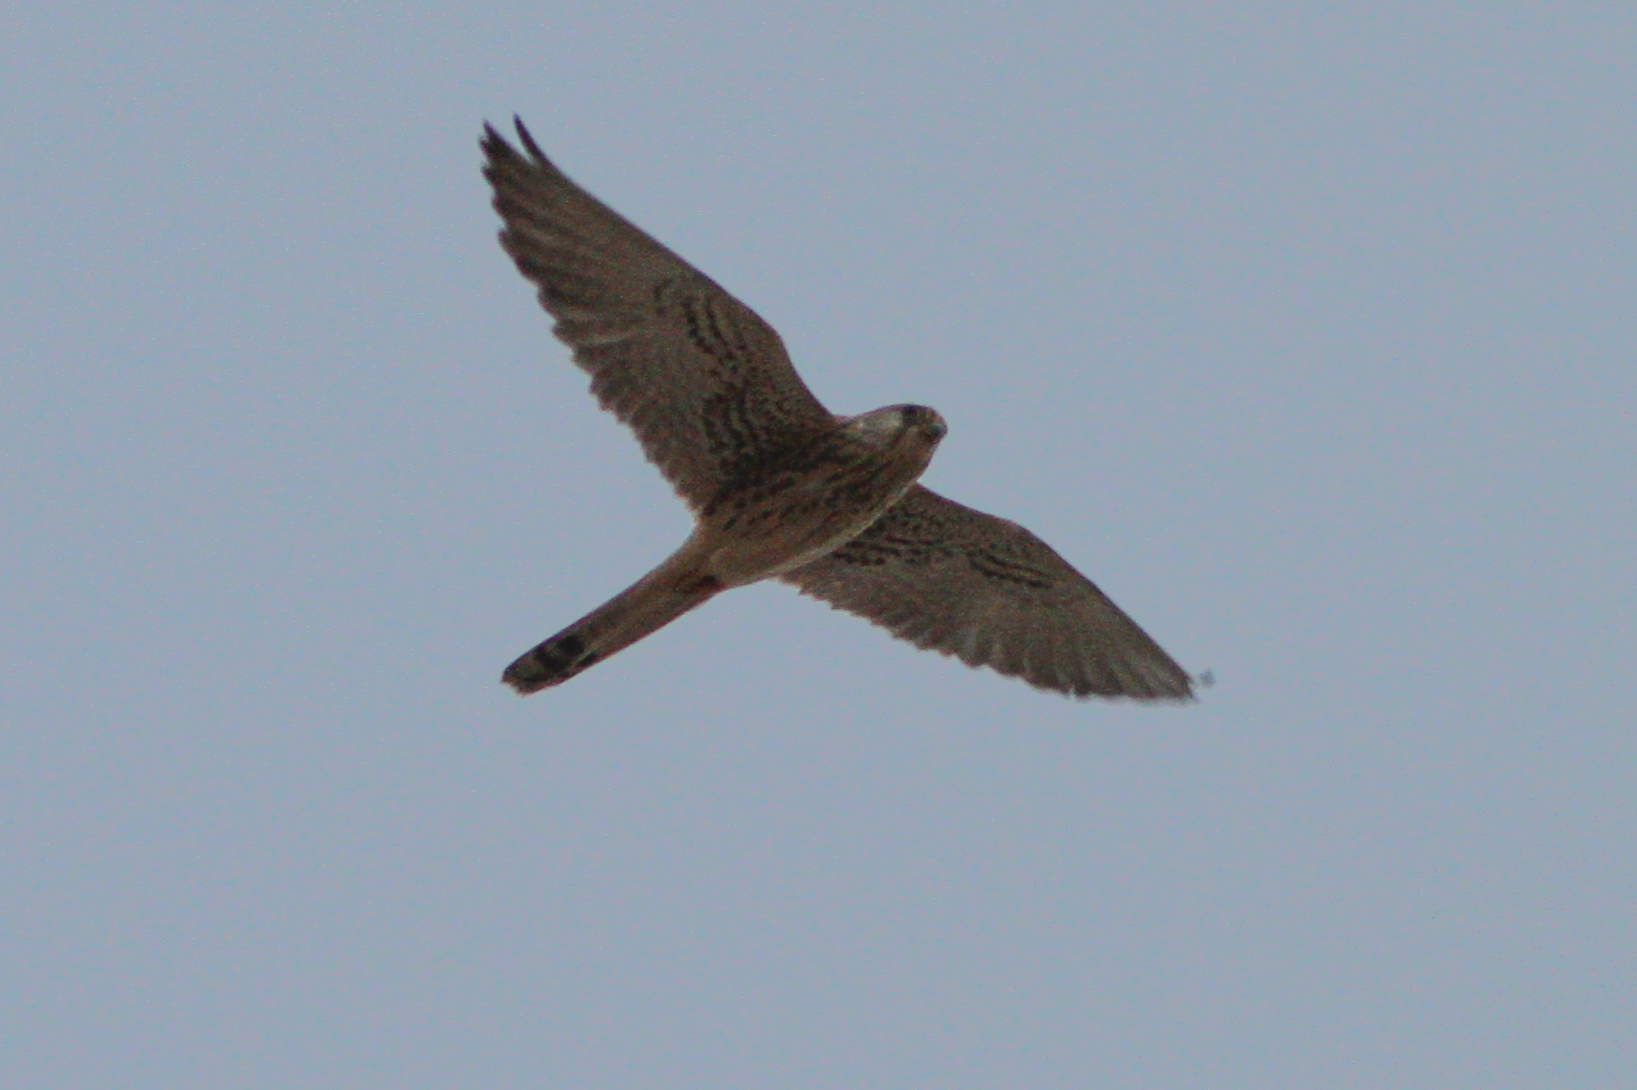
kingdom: Animalia
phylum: Chordata
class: Aves
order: Falconiformes
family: Falconidae
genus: Falco
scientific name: Falco naumanni
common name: Lesser kestrel
